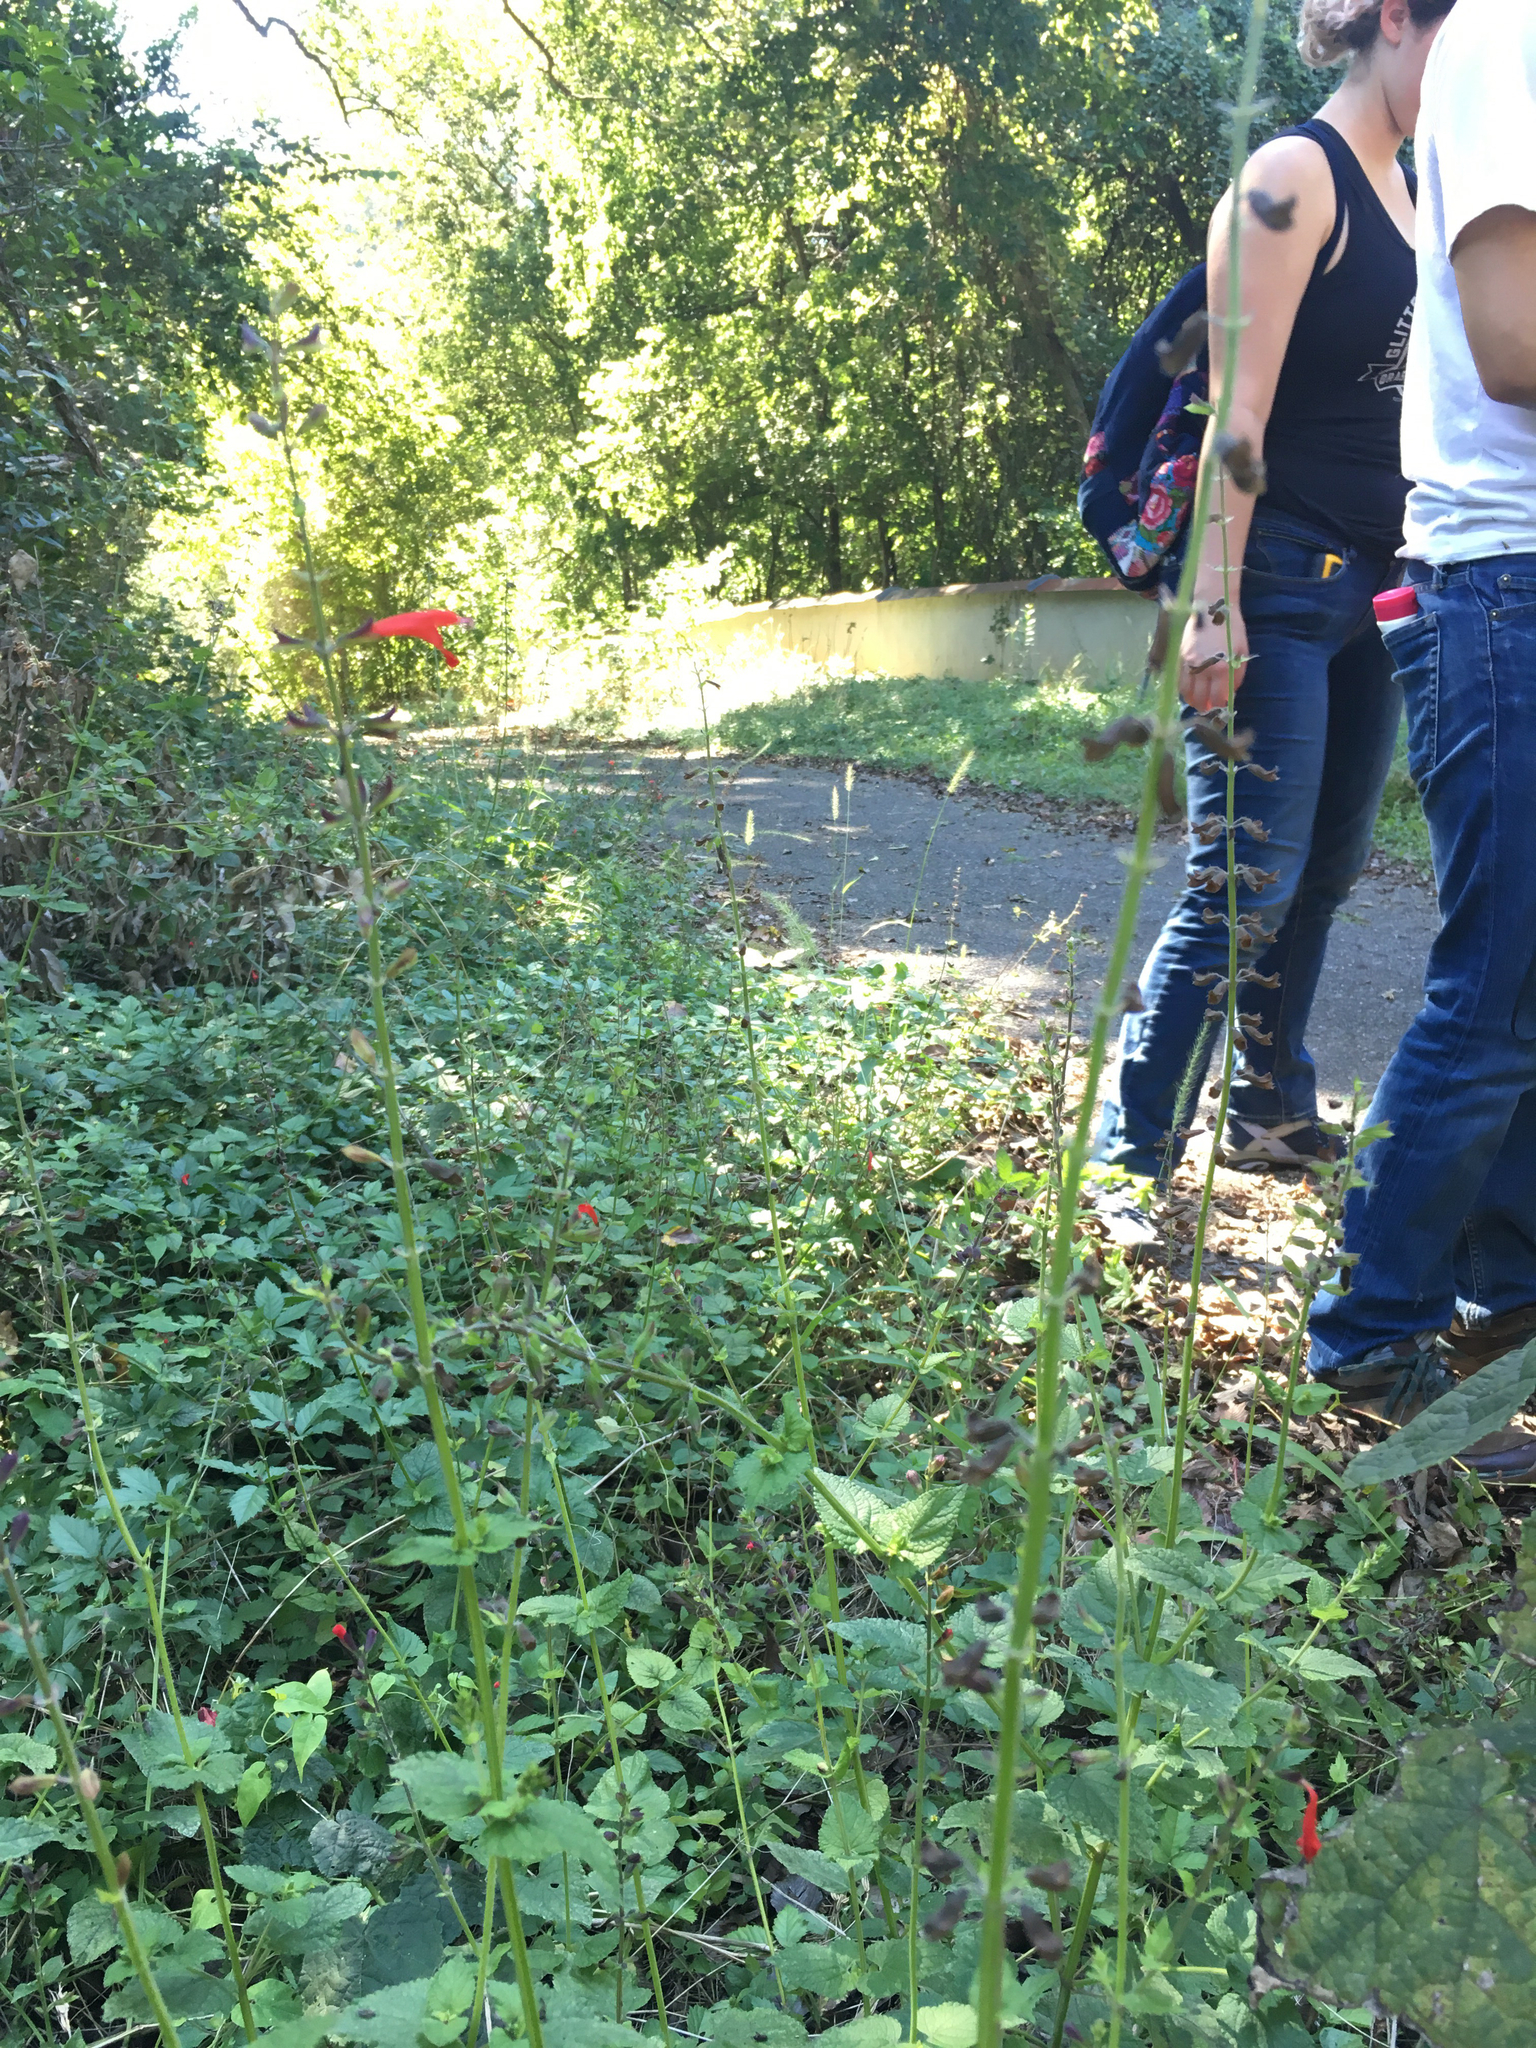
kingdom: Plantae
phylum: Tracheophyta
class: Magnoliopsida
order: Lamiales
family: Lamiaceae
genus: Salvia
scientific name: Salvia coccinea
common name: Blood sage
